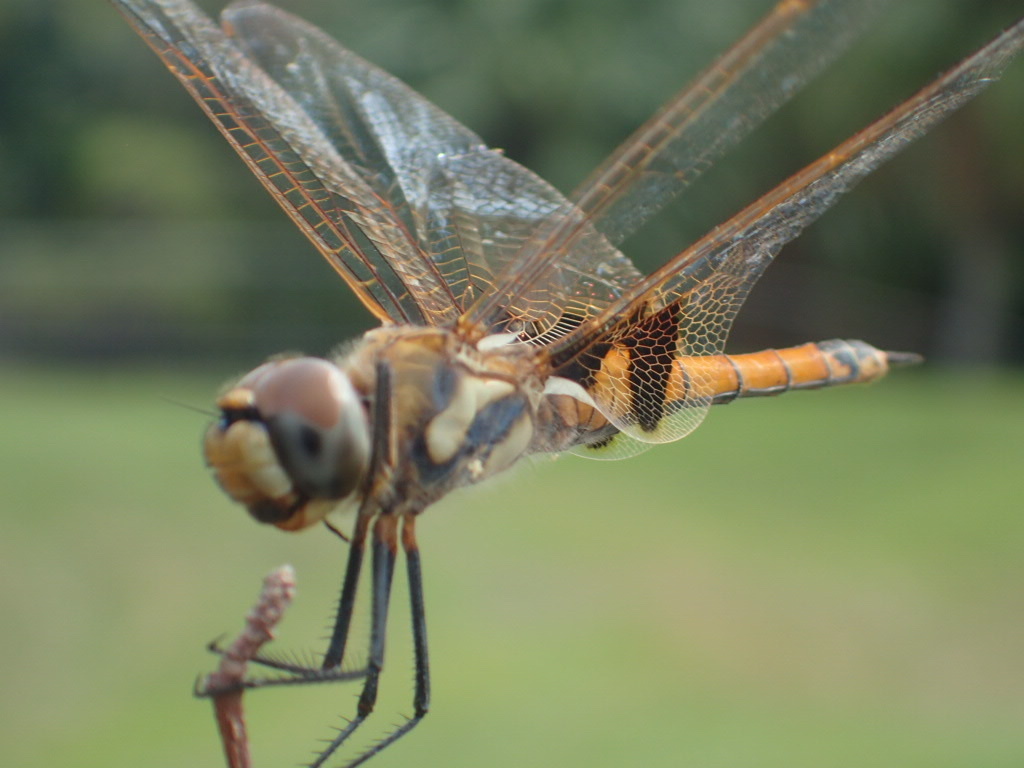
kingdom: Animalia
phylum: Arthropoda
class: Insecta
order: Odonata
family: Libellulidae
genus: Tramea
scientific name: Tramea loewii
